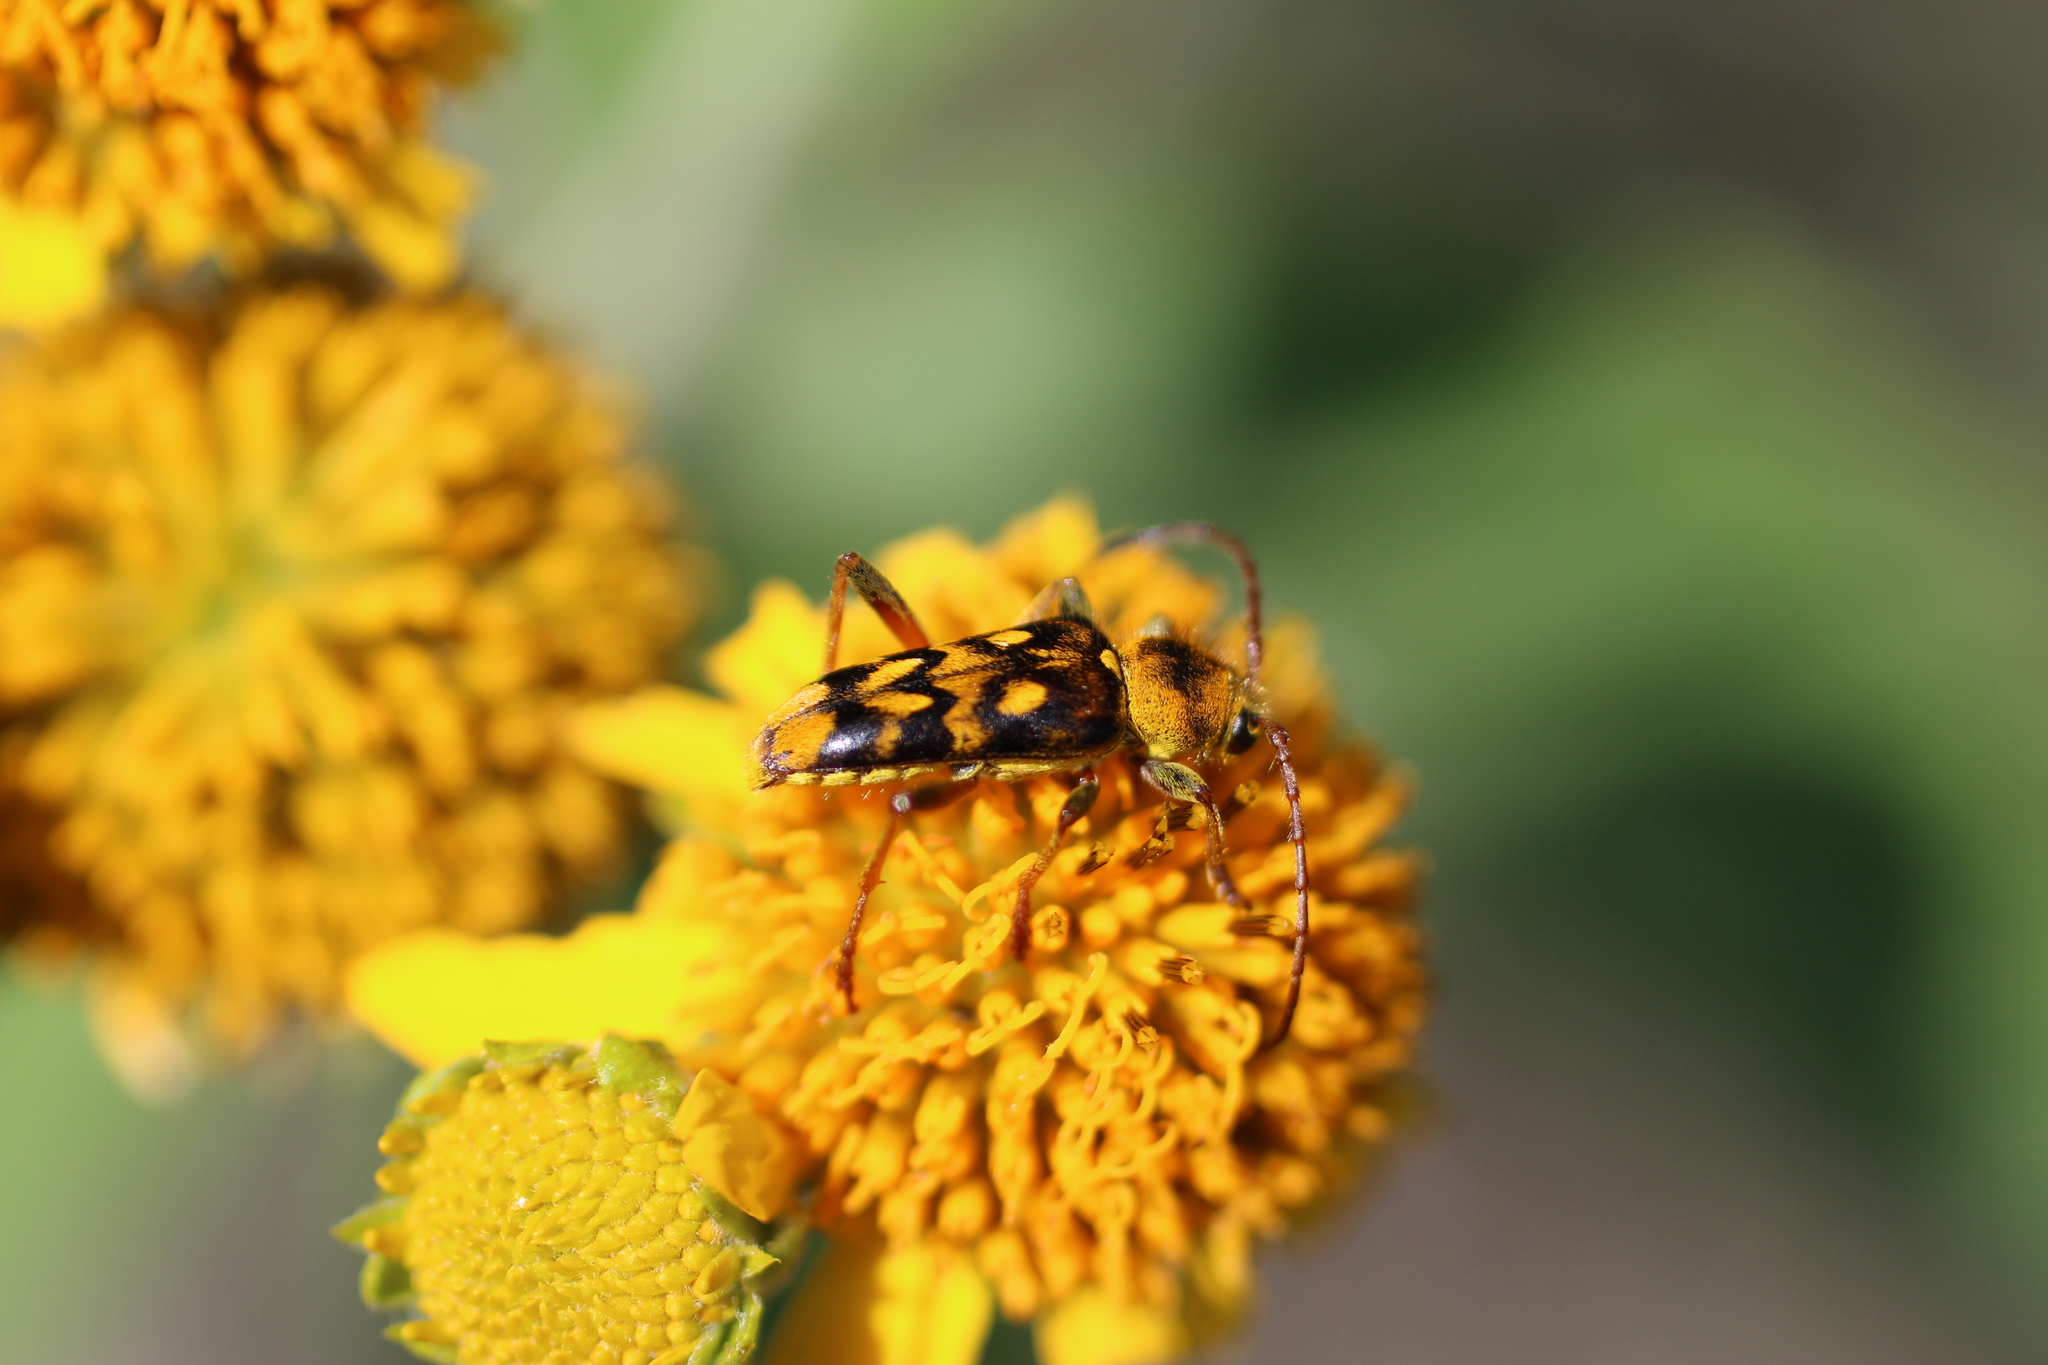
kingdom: Animalia
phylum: Arthropoda
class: Insecta
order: Coleoptera
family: Cerambycidae
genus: Ochraethes
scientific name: Ochraethes sommeri
